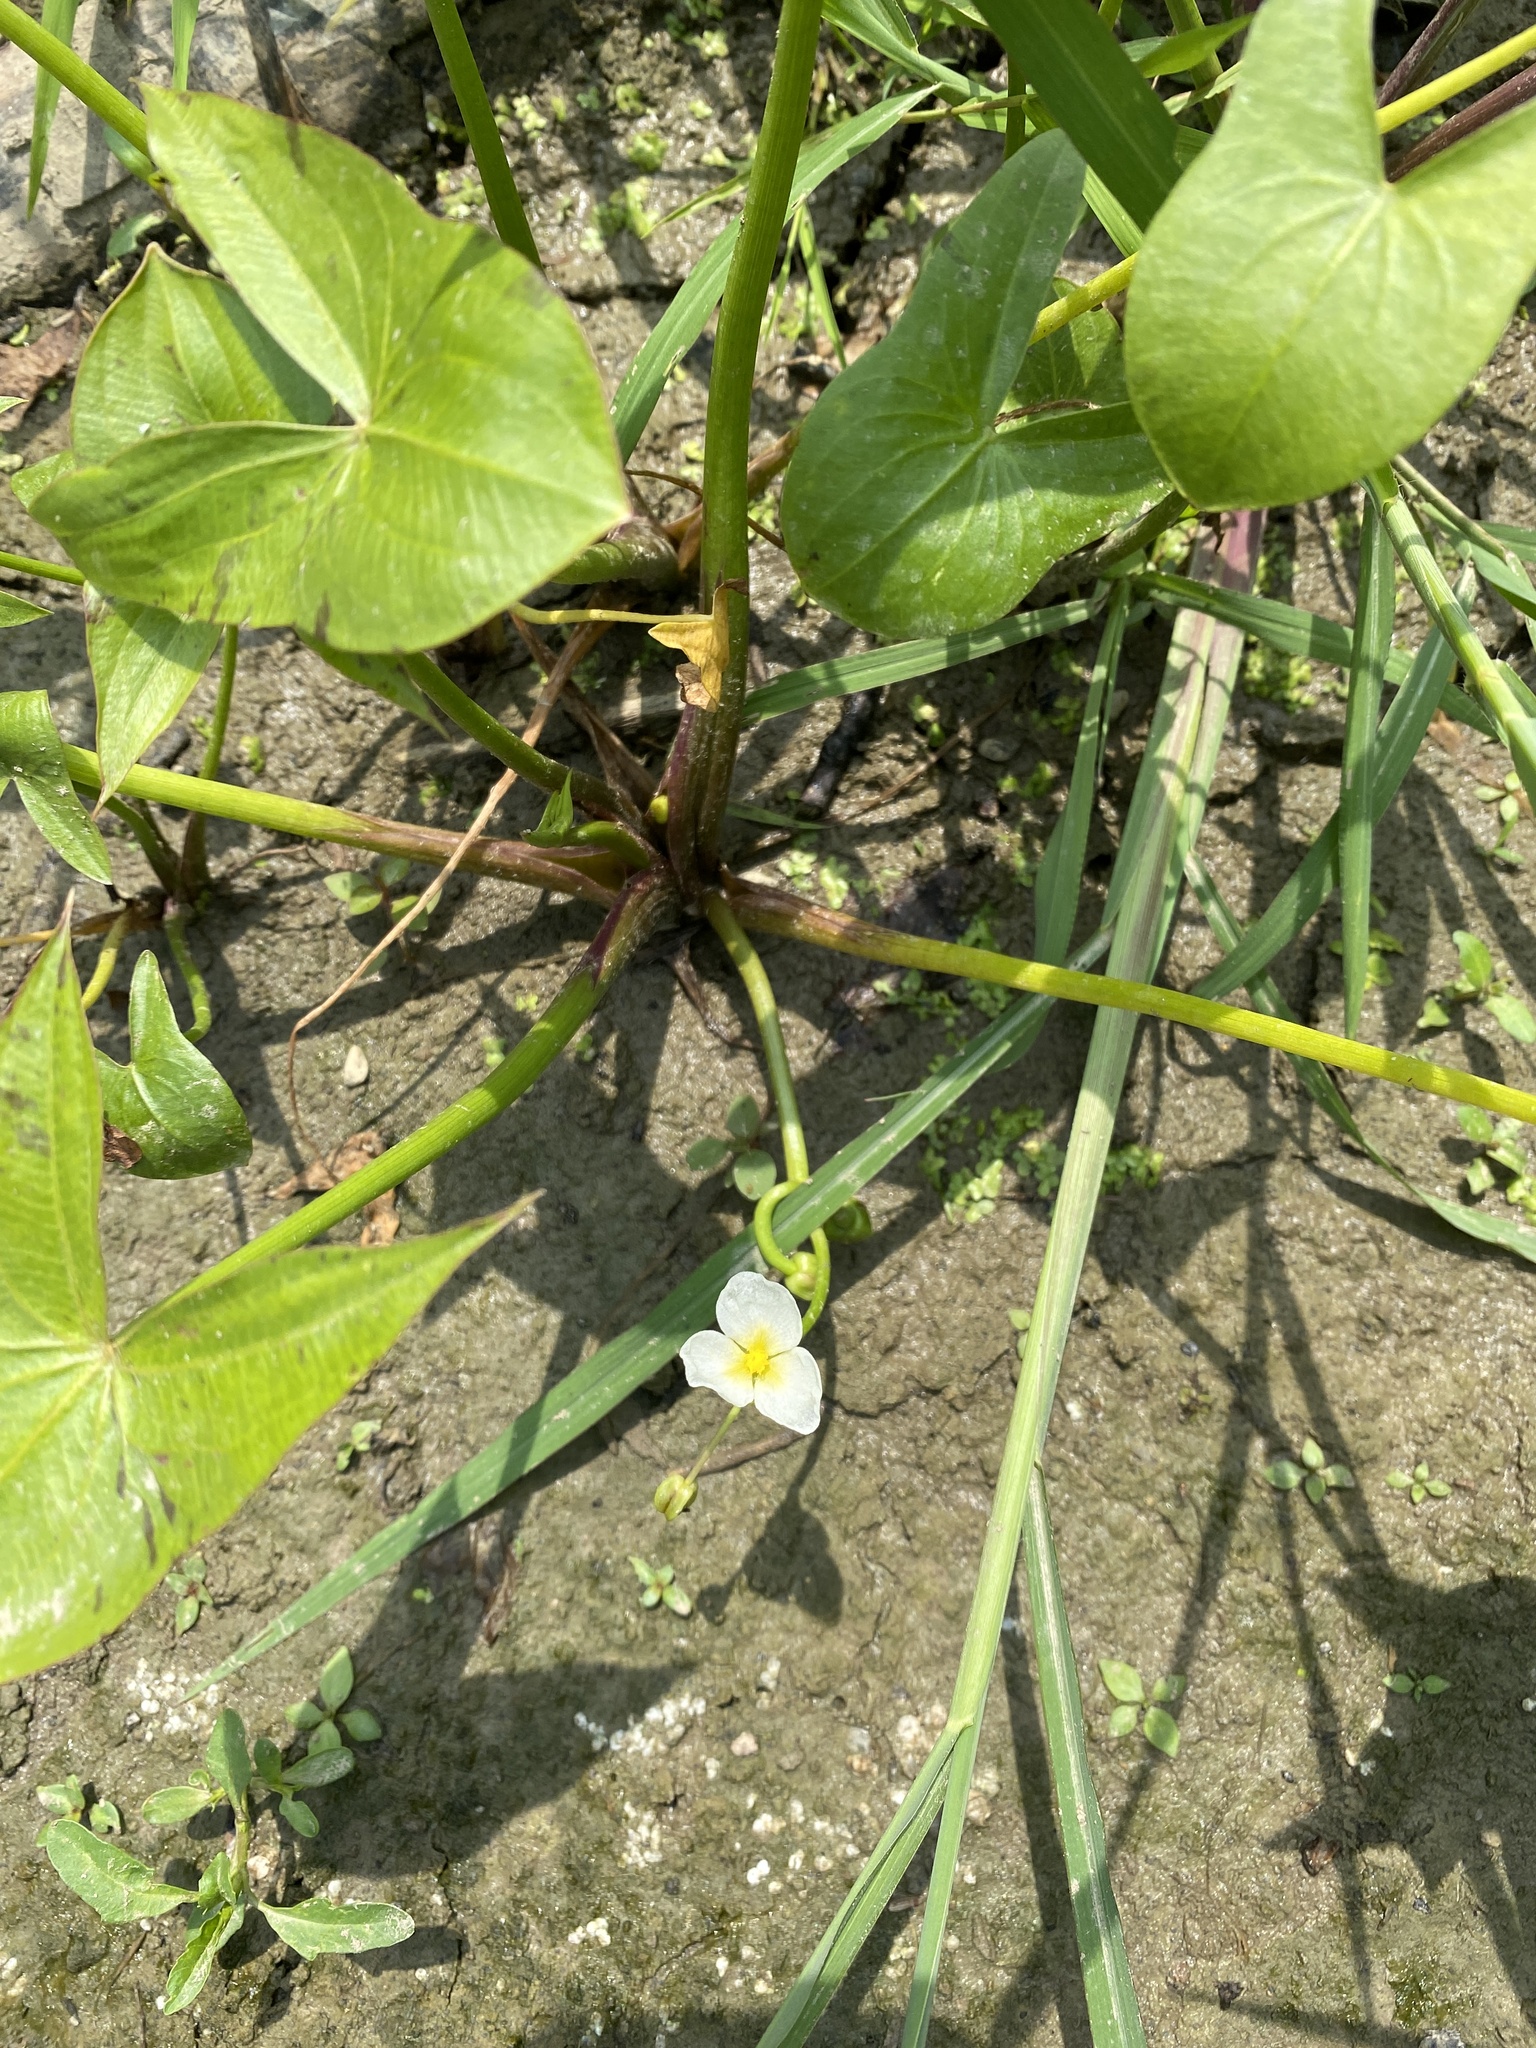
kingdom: Plantae
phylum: Tracheophyta
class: Liliopsida
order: Alismatales
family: Alismataceae
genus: Sagittaria
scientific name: Sagittaria calycina
